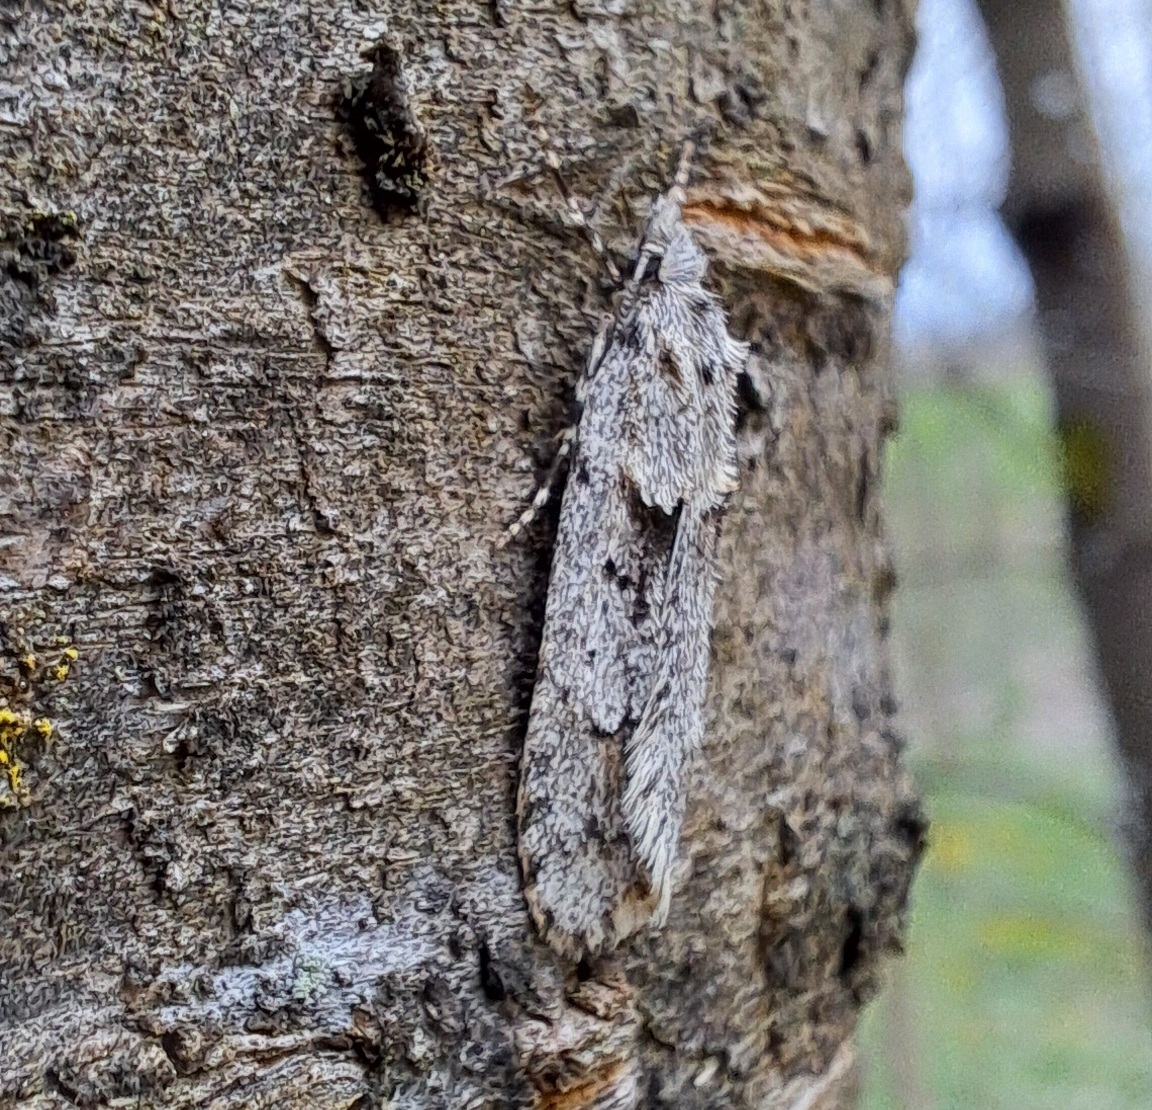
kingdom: Animalia
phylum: Arthropoda
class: Insecta
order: Lepidoptera
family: Lypusidae
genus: Diurnea
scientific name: Diurnea fagella
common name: March tubic
